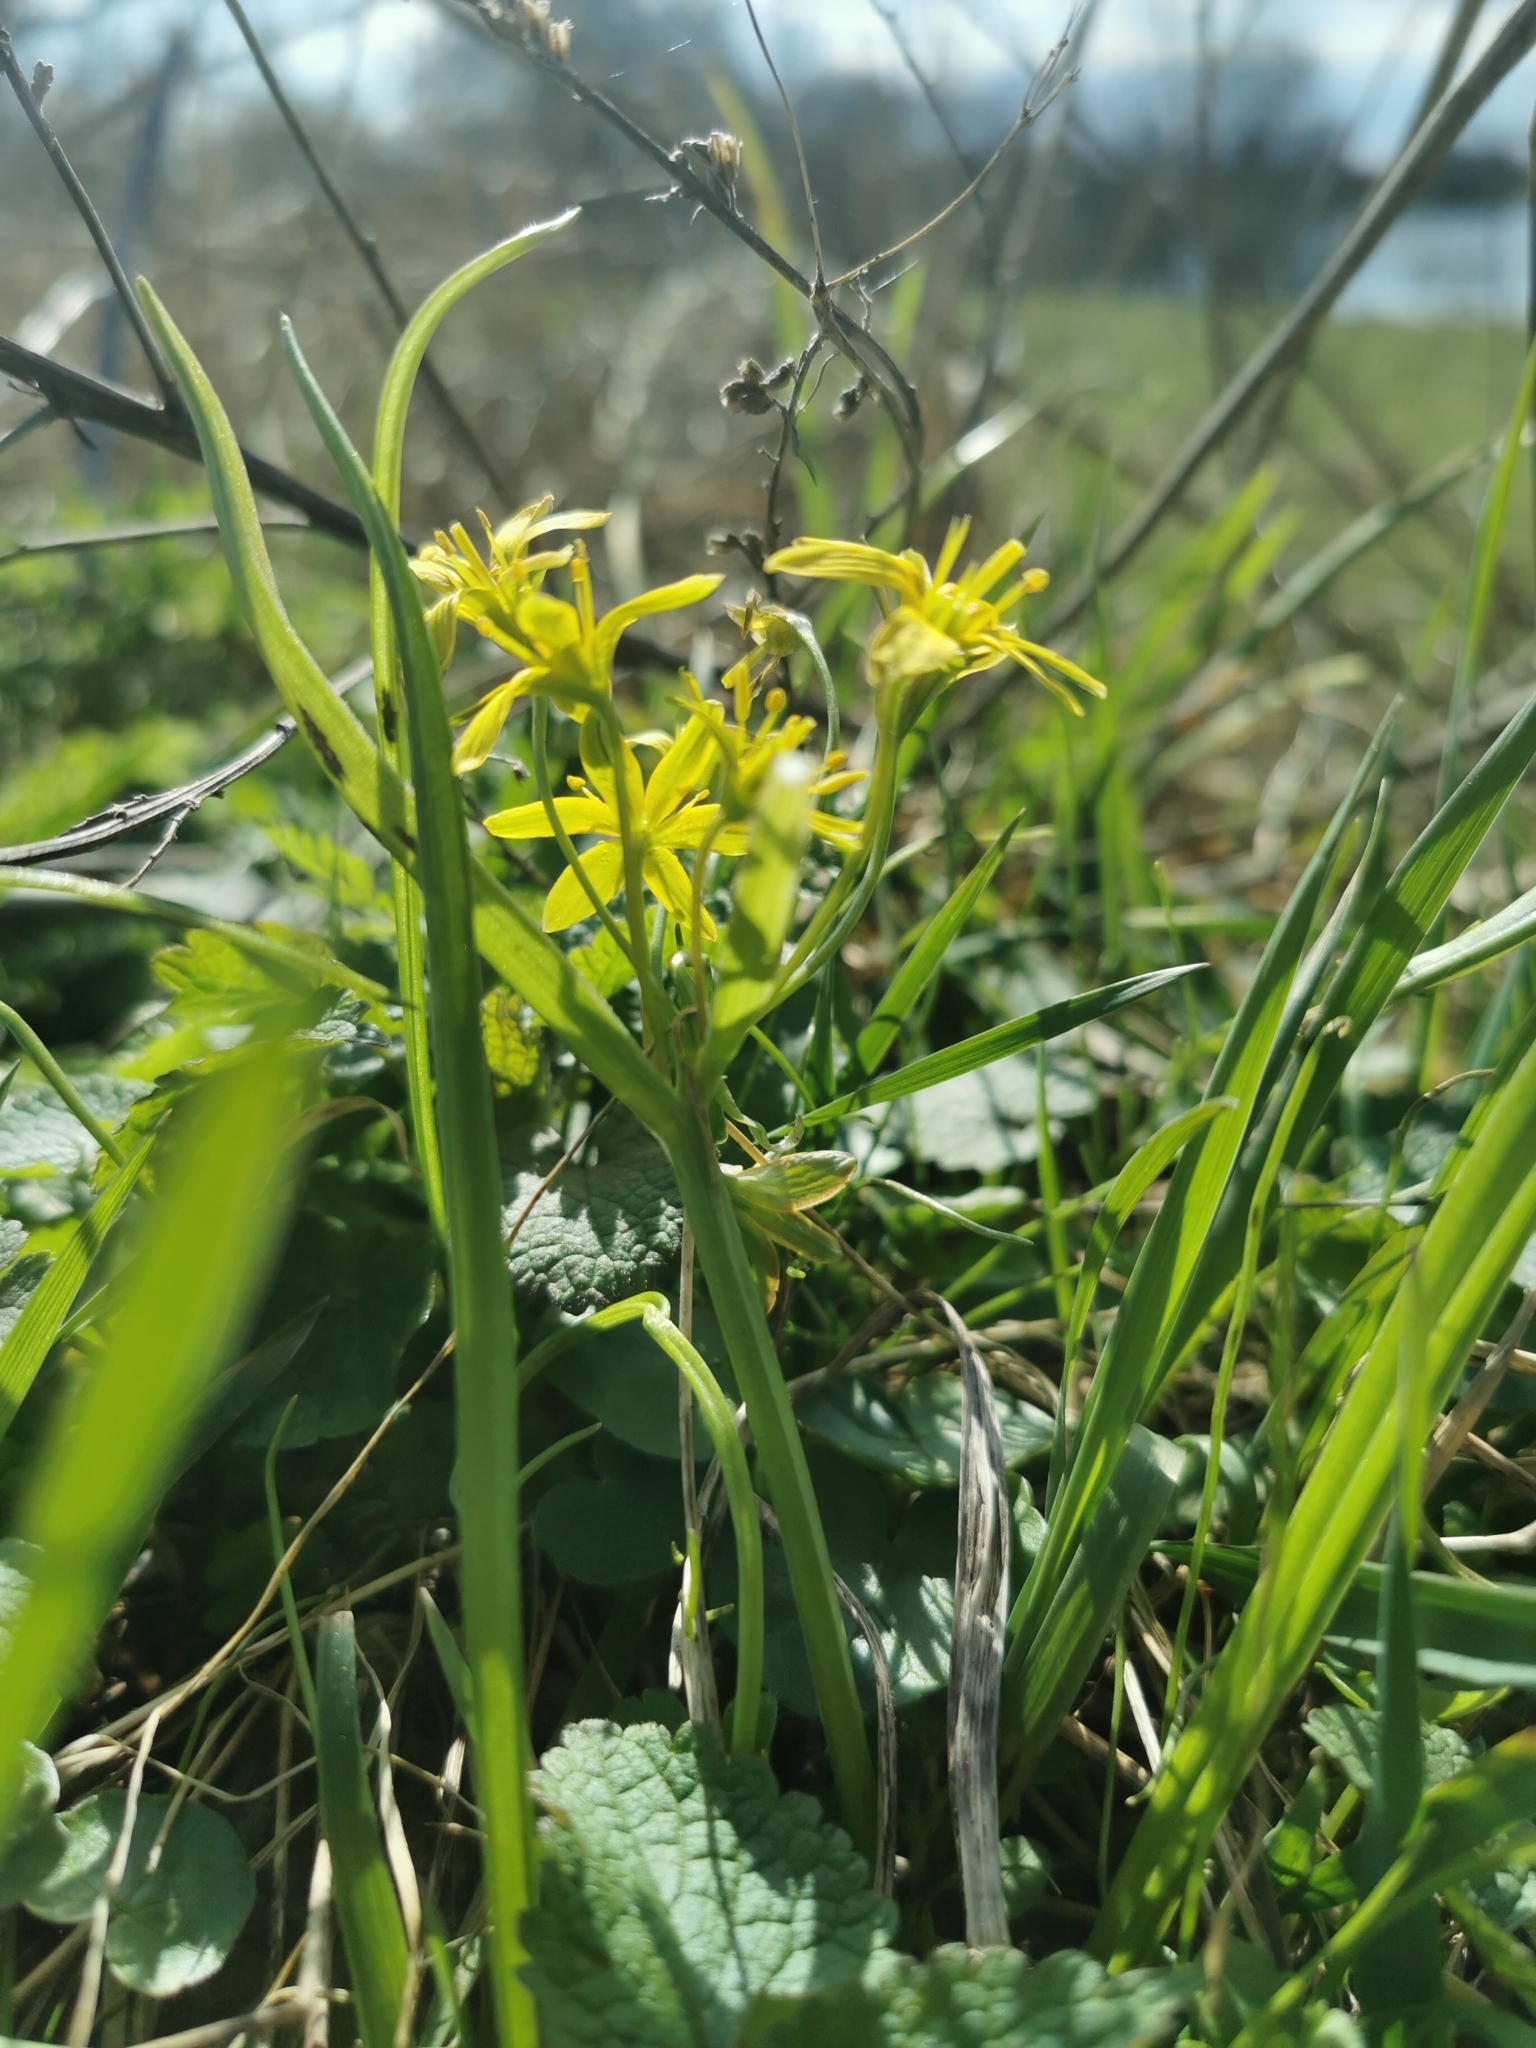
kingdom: Plantae
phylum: Tracheophyta
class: Liliopsida
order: Liliales
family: Liliaceae
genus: Gagea
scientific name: Gagea lutea
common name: Yellow star-of-bethlehem
